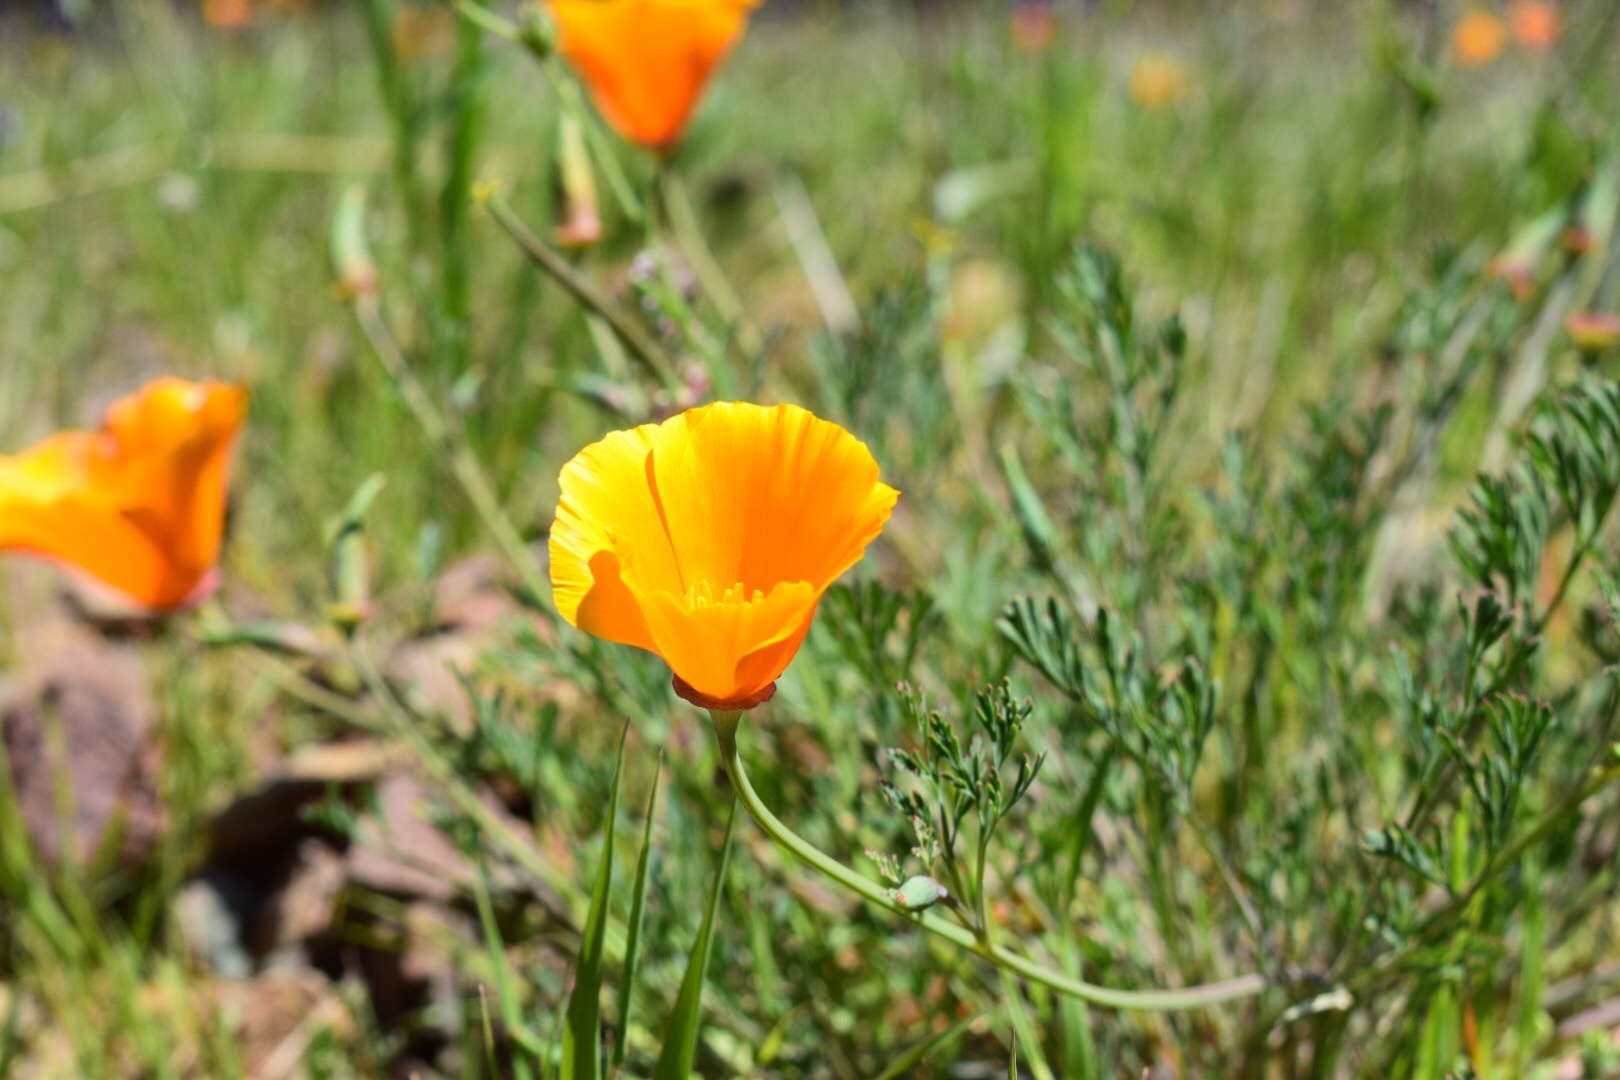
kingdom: Plantae
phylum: Tracheophyta
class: Magnoliopsida
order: Ranunculales
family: Papaveraceae
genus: Eschscholzia
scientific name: Eschscholzia californica
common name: California poppy
